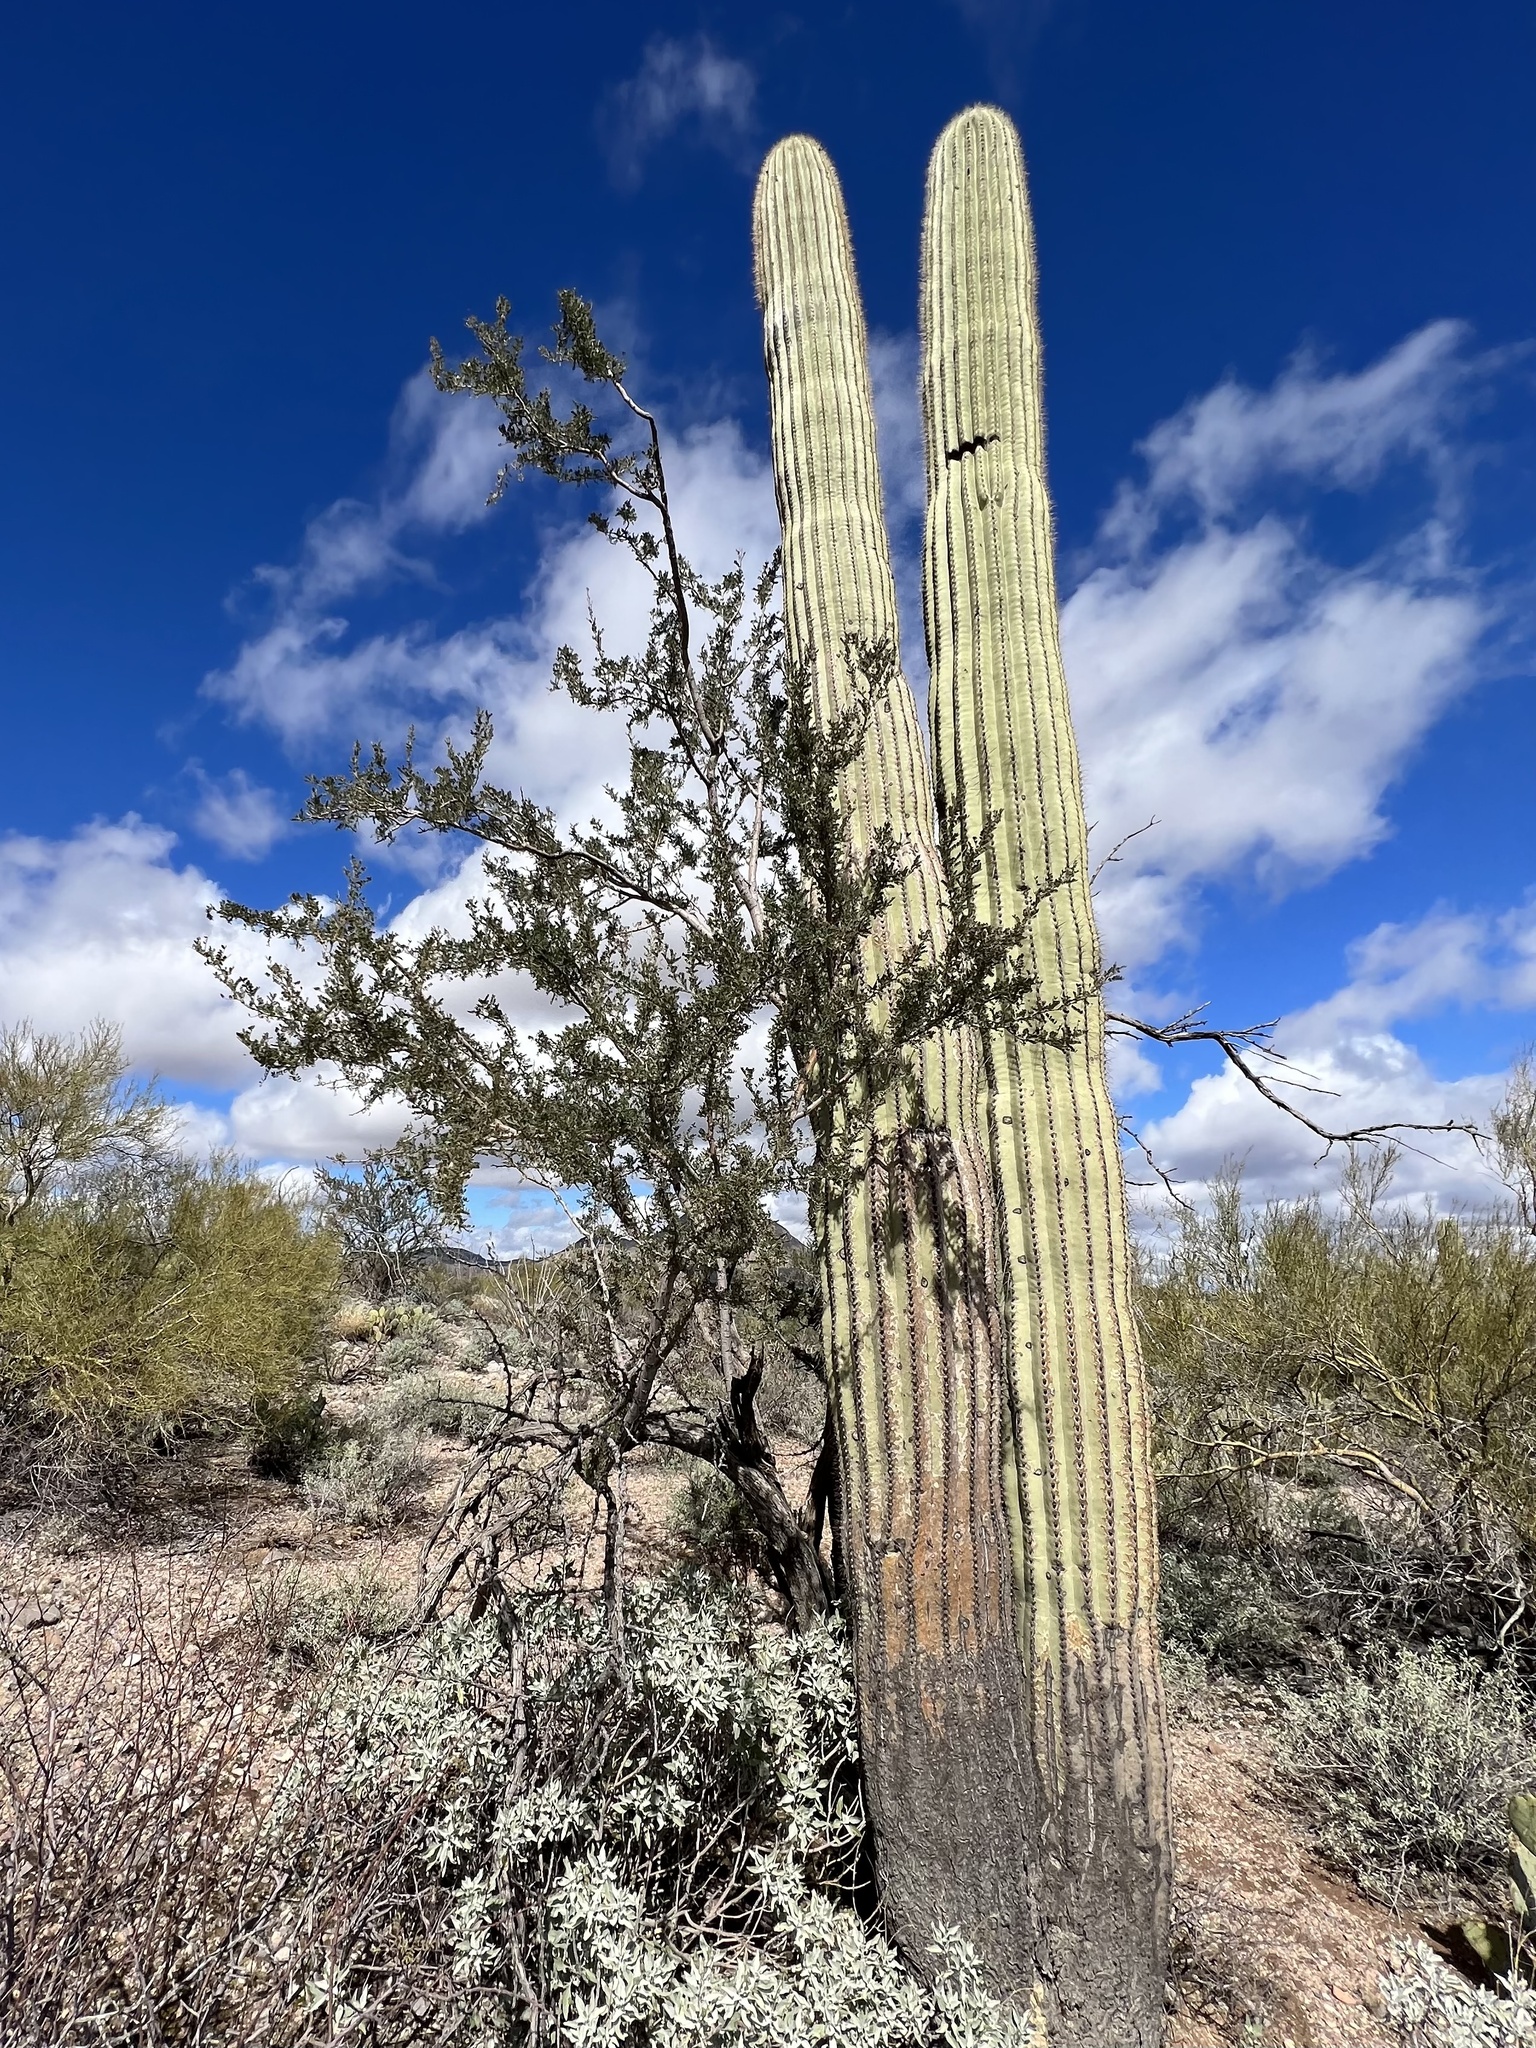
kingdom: Plantae
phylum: Tracheophyta
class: Magnoliopsida
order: Caryophyllales
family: Cactaceae
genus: Carnegiea
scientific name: Carnegiea gigantea
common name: Saguaro
